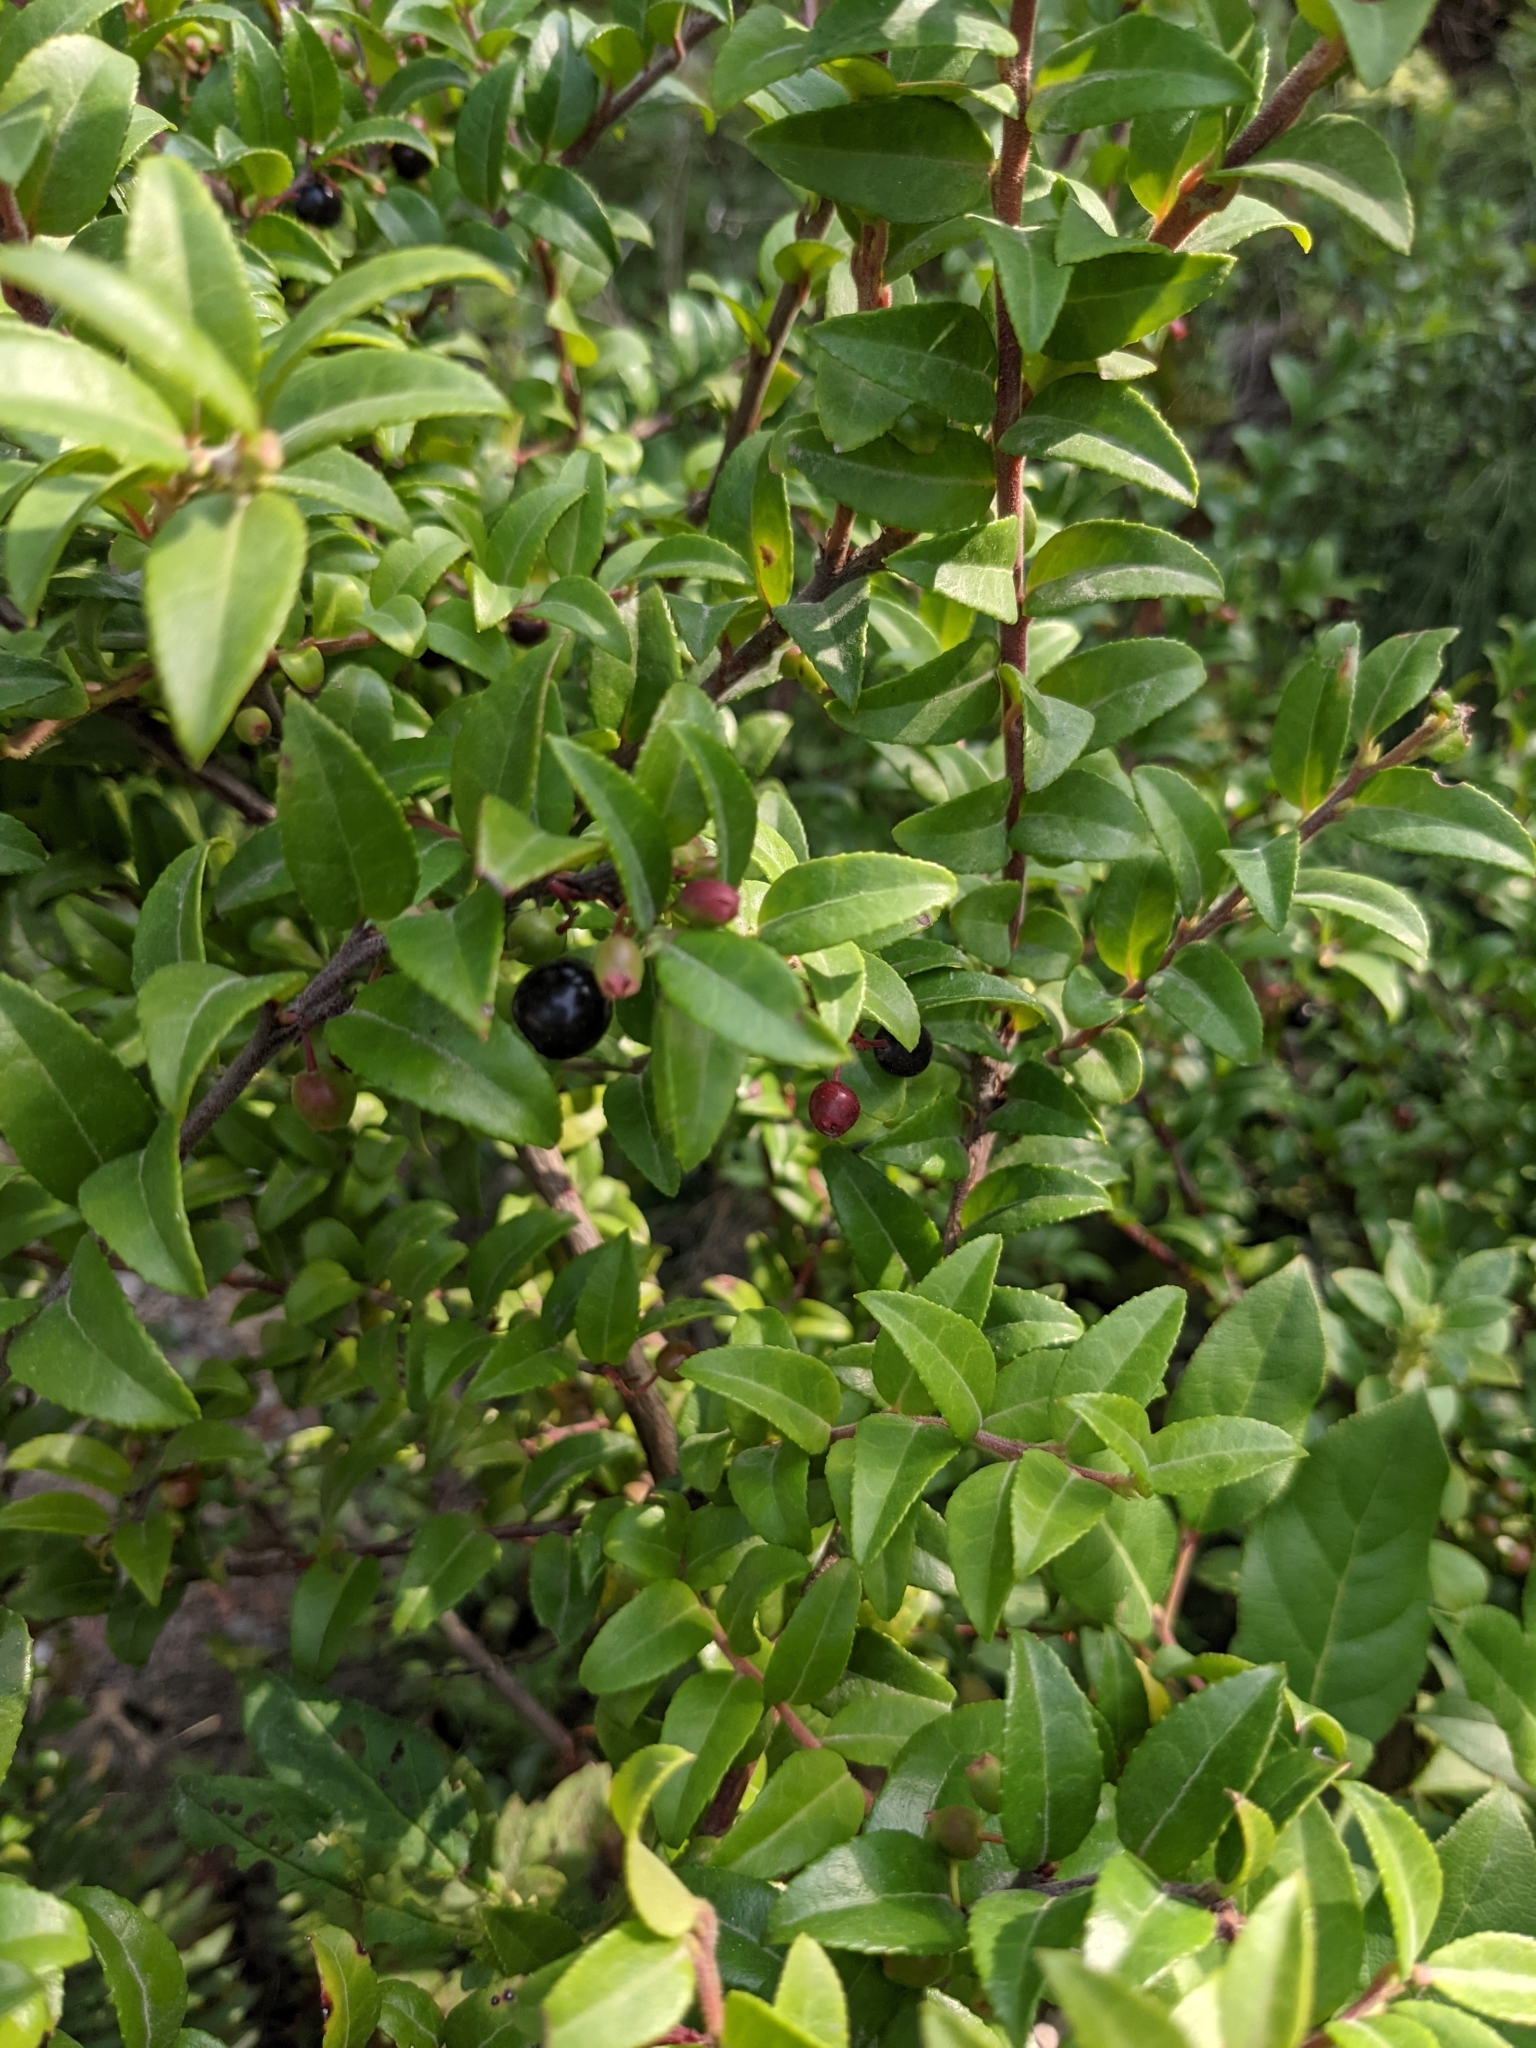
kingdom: Plantae
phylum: Tracheophyta
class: Magnoliopsida
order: Ericales
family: Ericaceae
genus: Vaccinium
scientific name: Vaccinium ovatum
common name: California-huckleberry
